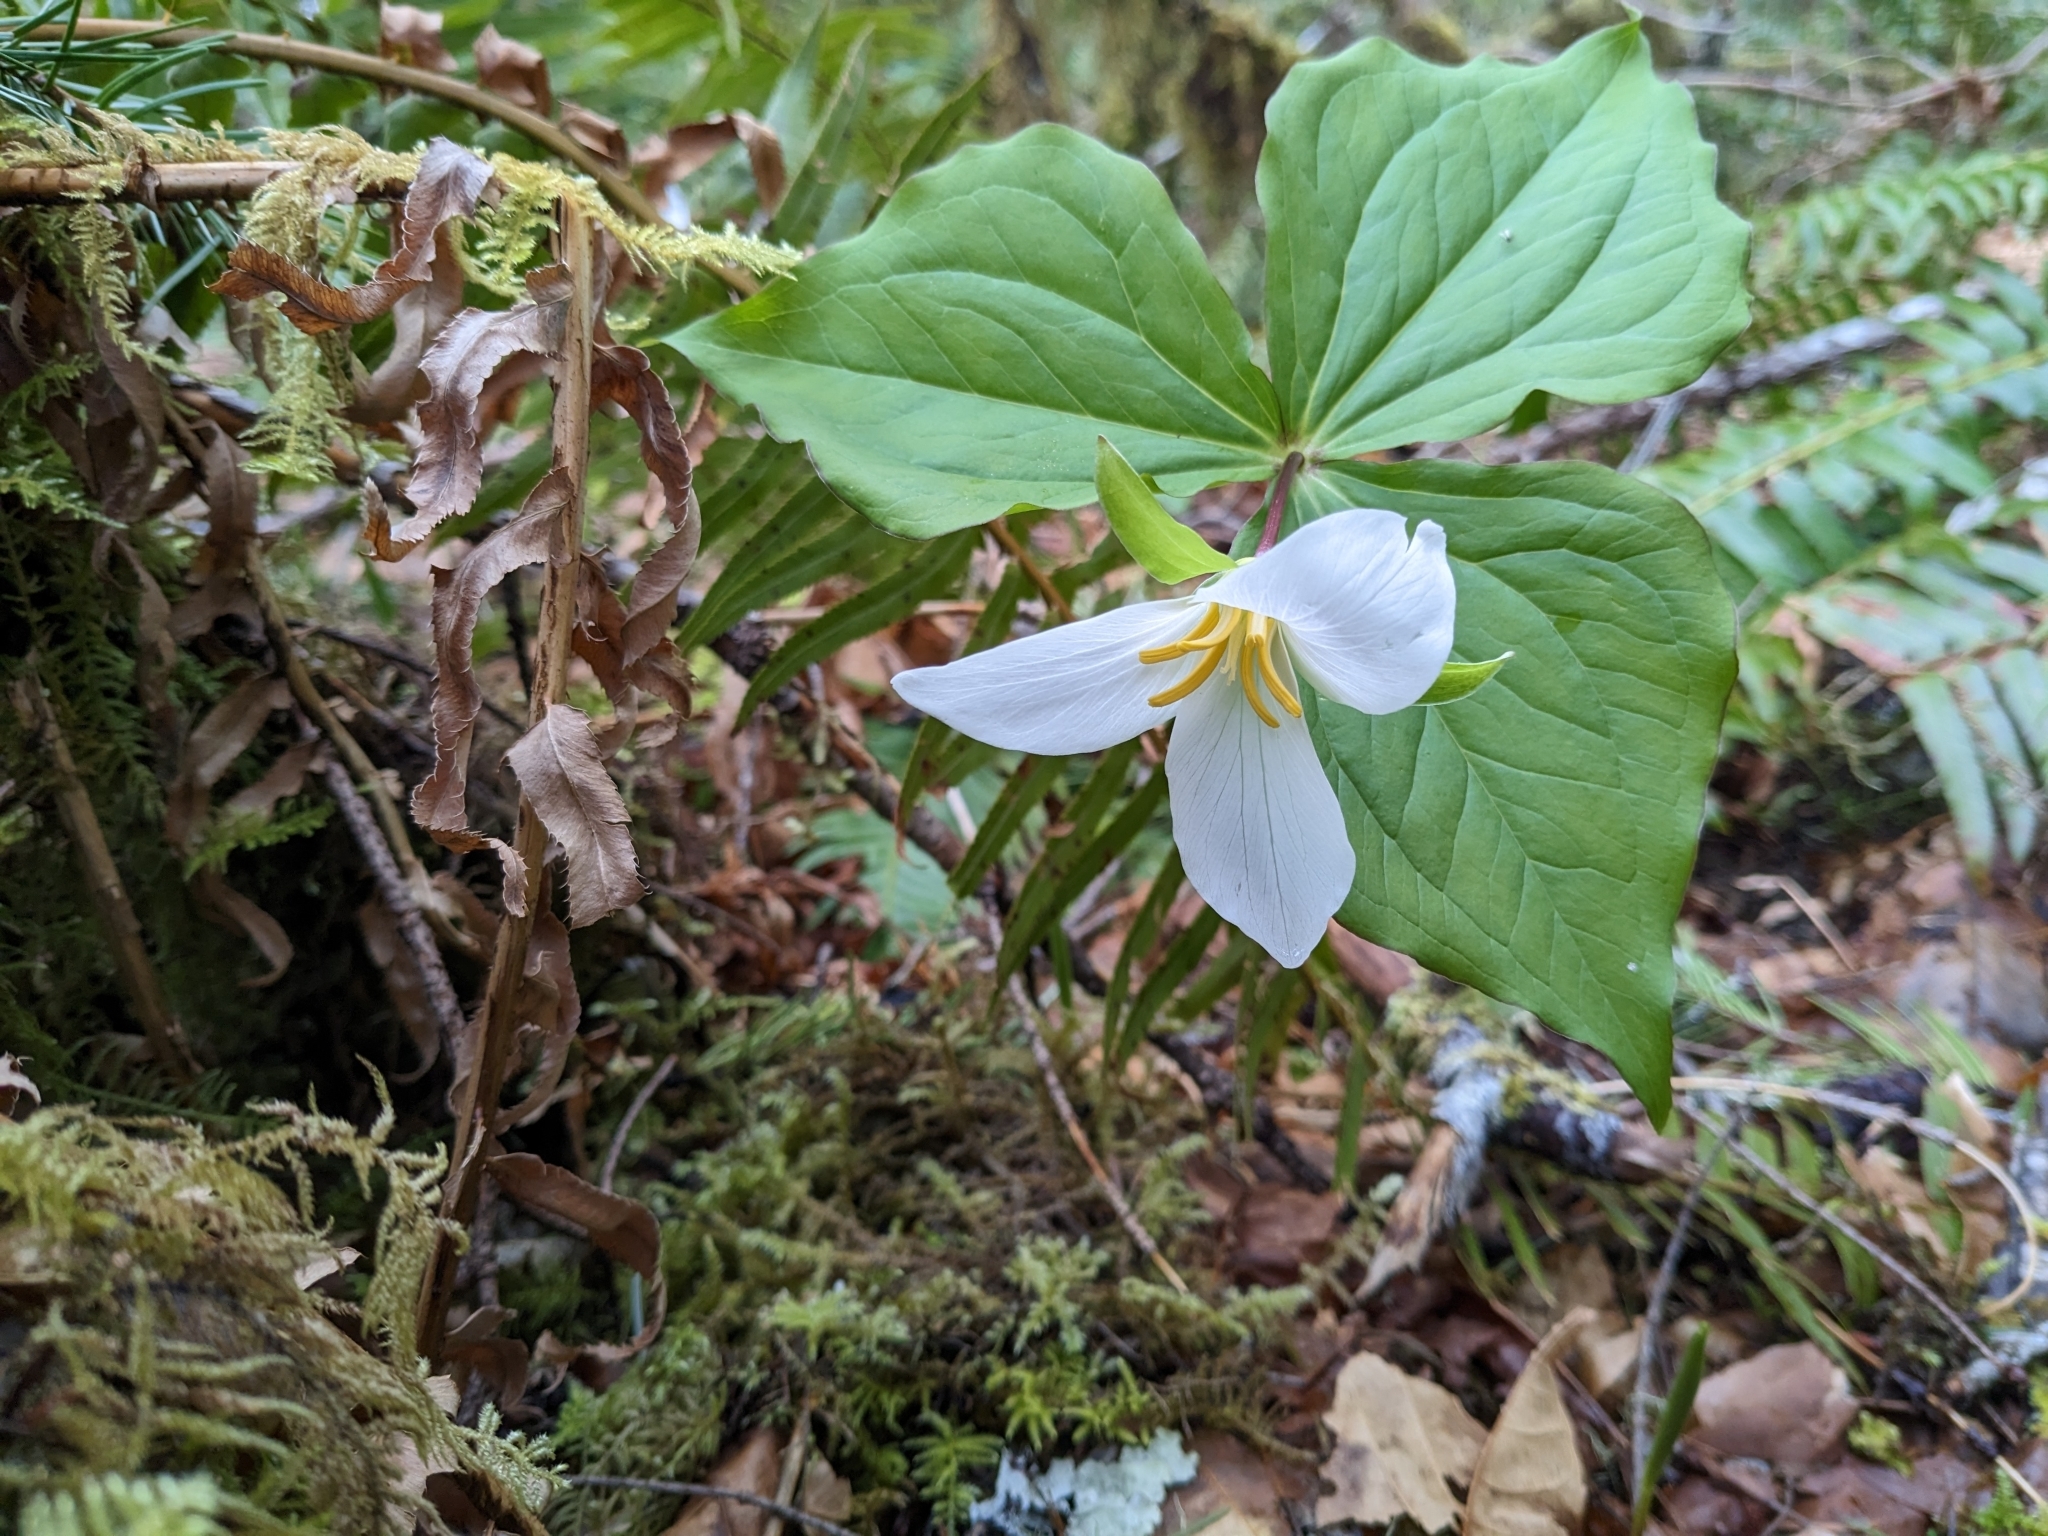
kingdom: Plantae
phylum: Tracheophyta
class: Liliopsida
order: Liliales
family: Melanthiaceae
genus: Trillium
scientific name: Trillium ovatum
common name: Pacific trillium
